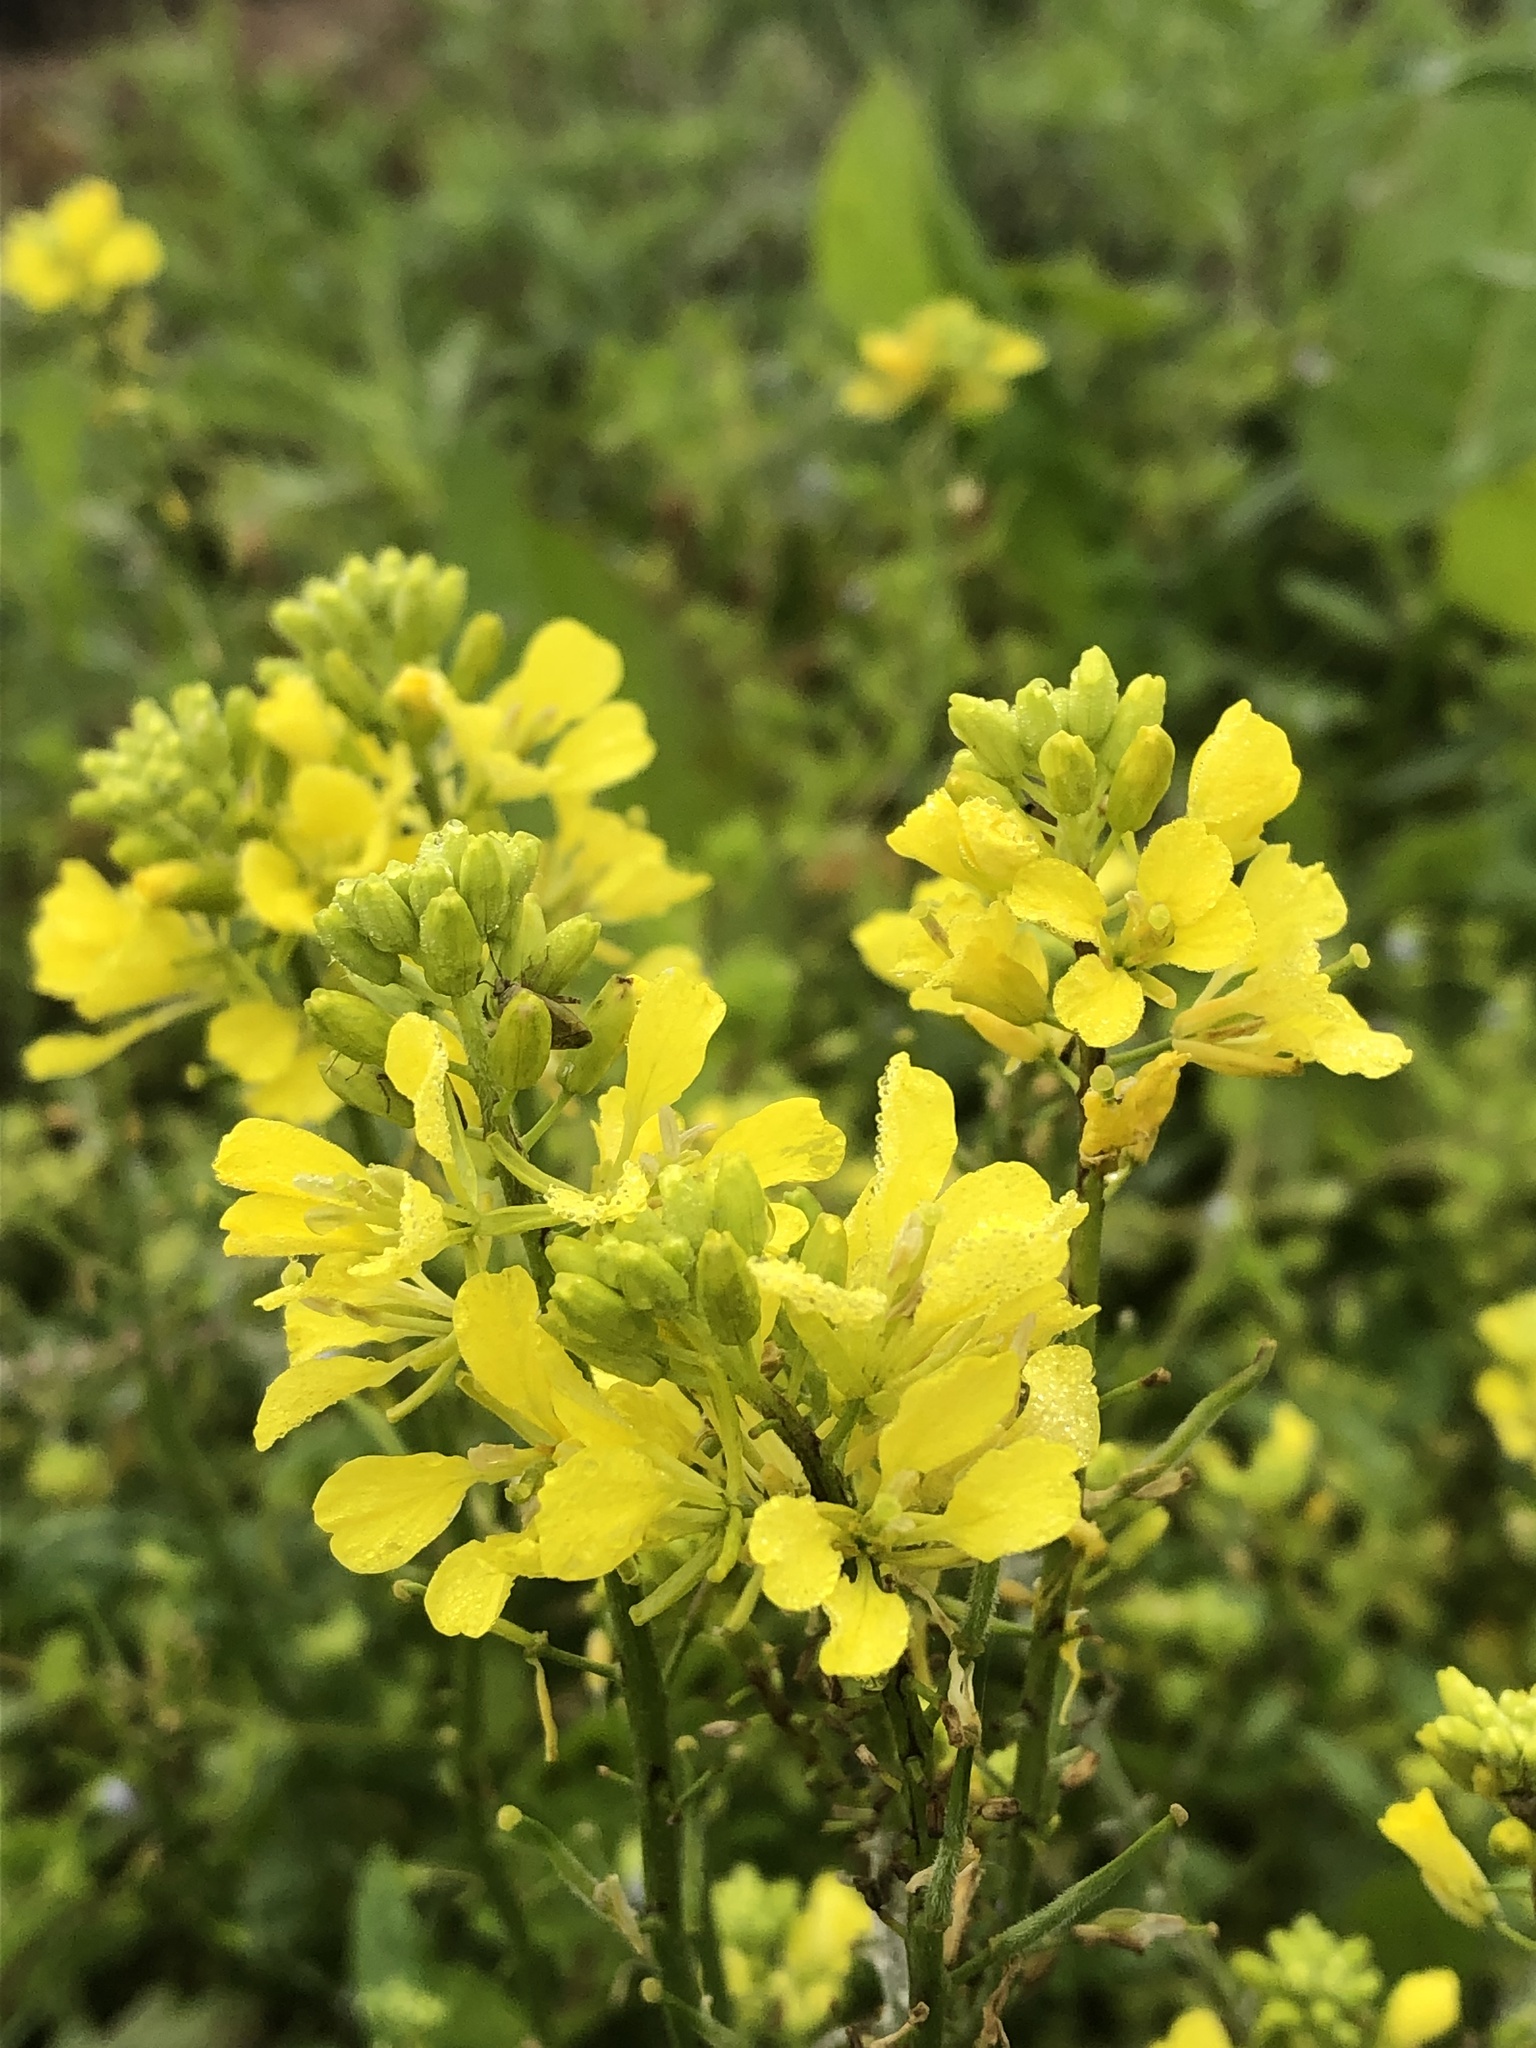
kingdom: Plantae
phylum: Tracheophyta
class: Magnoliopsida
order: Brassicales
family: Brassicaceae
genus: Sinapis
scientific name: Sinapis arvensis
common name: Charlock
